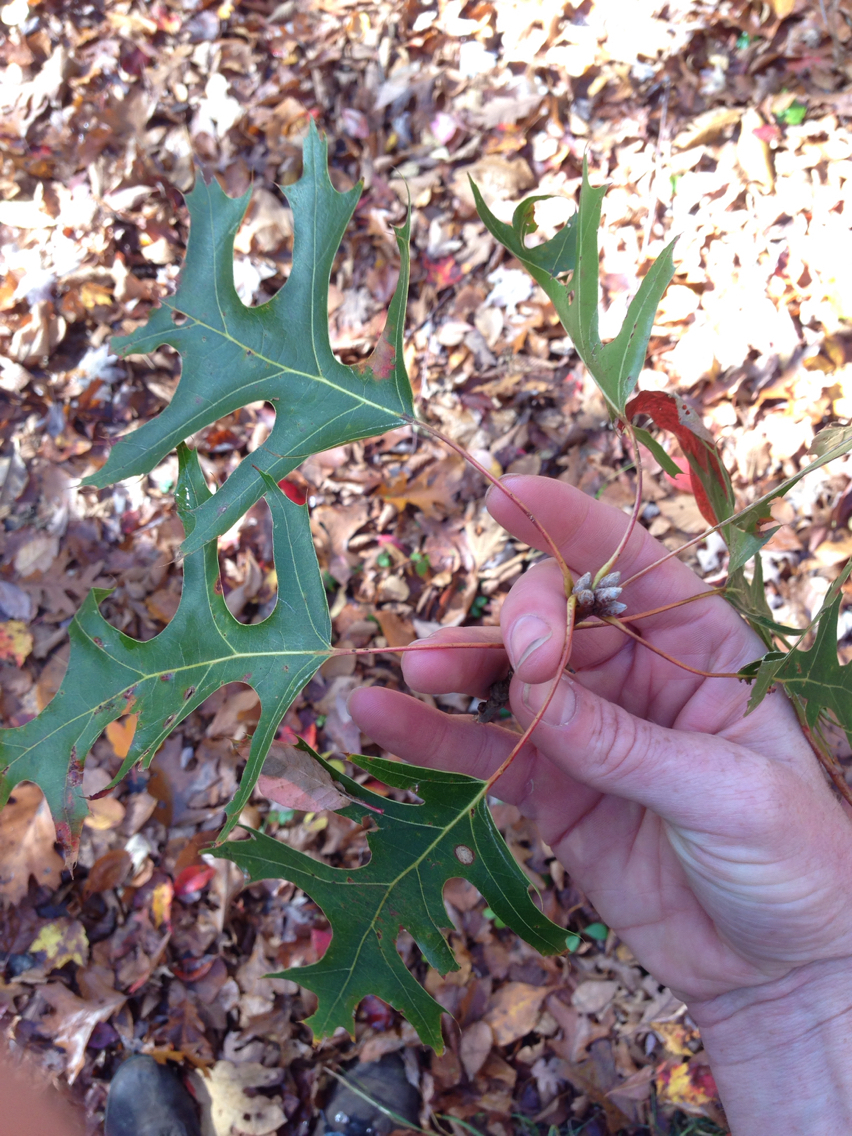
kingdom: Plantae
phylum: Tracheophyta
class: Magnoliopsida
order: Fagales
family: Fagaceae
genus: Quercus
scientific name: Quercus
